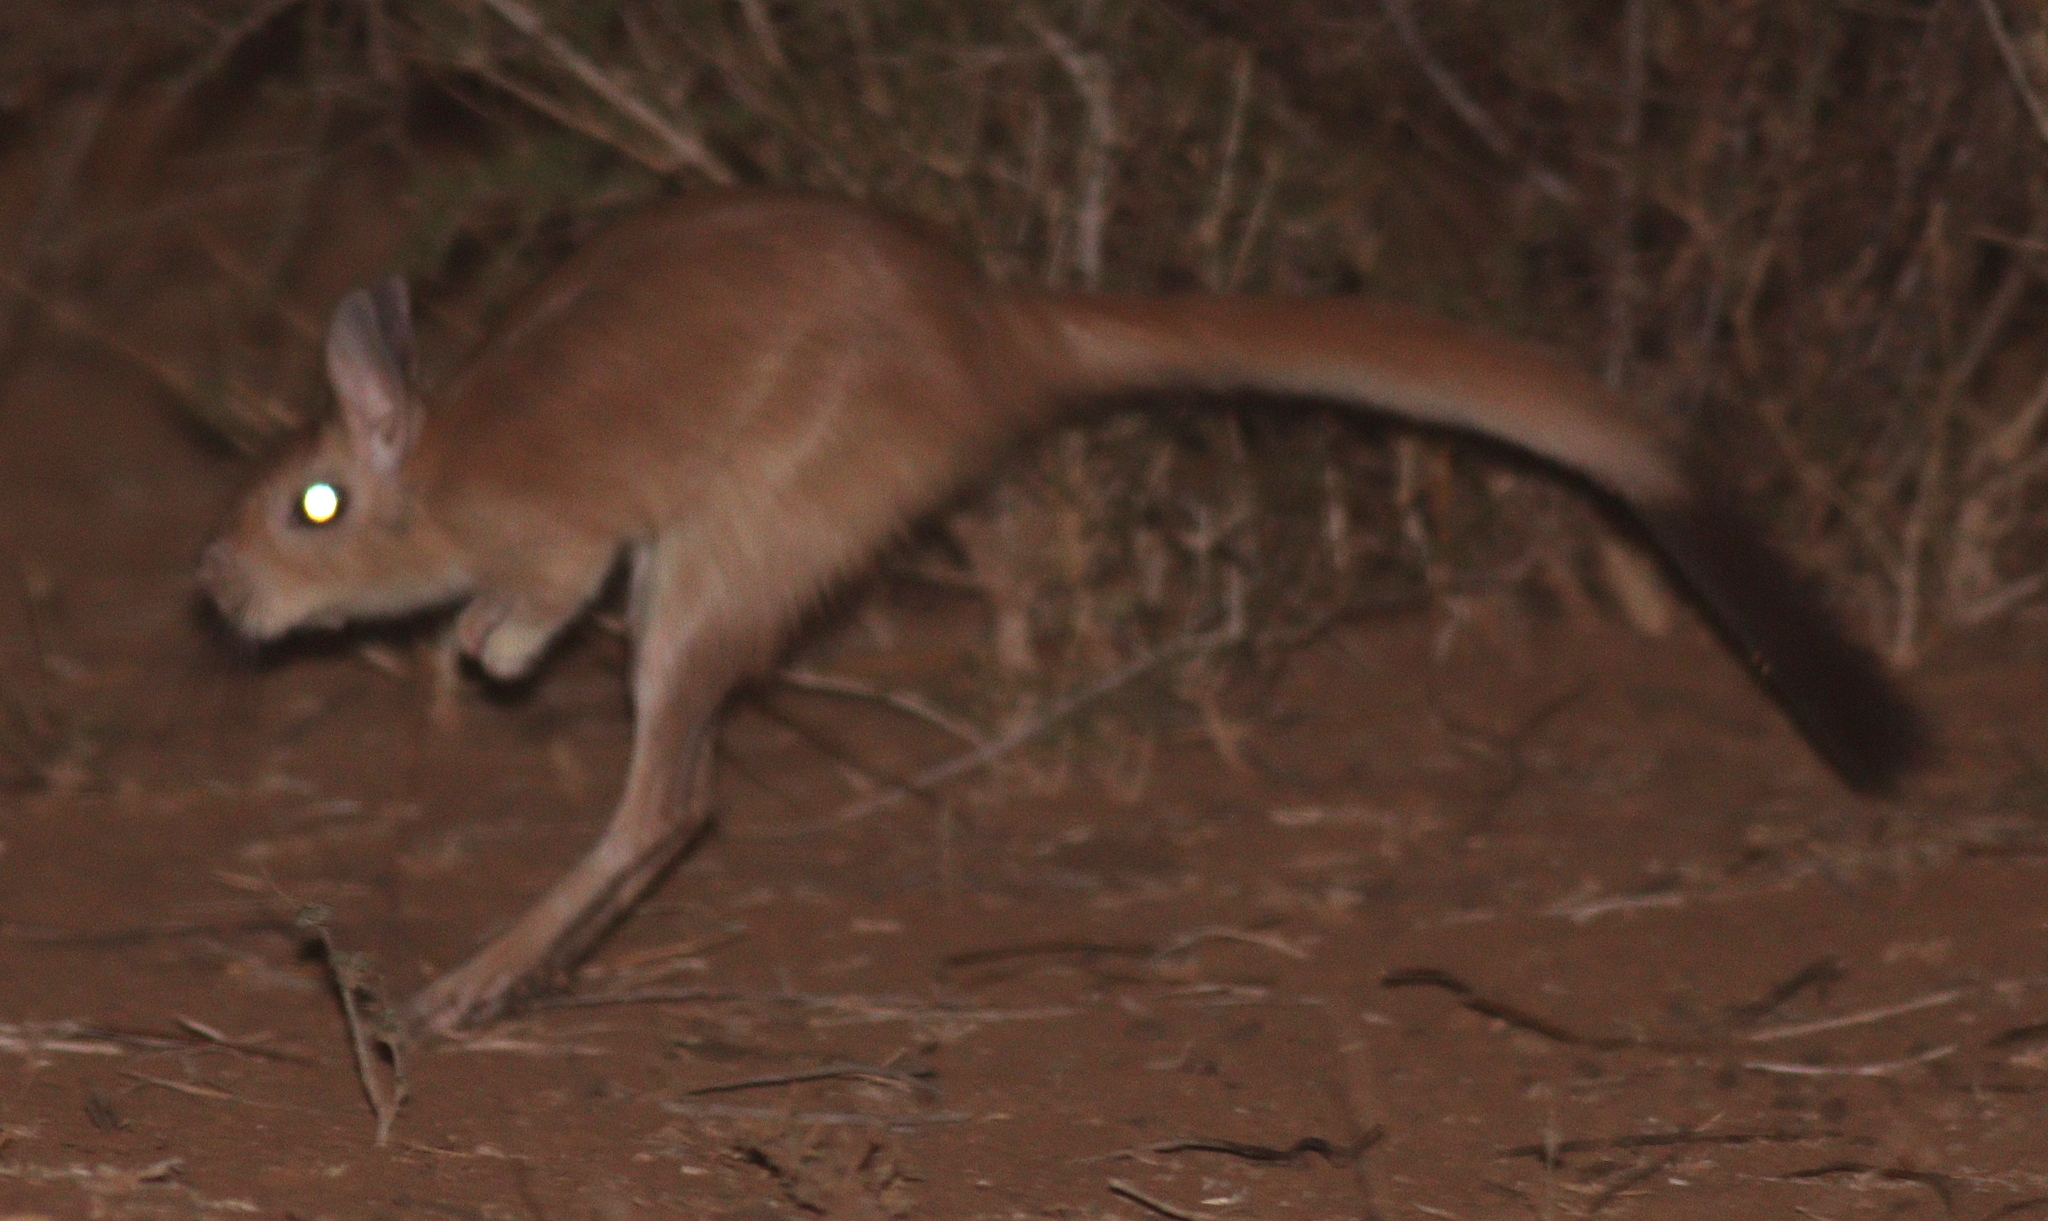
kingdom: Animalia
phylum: Chordata
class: Mammalia
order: Rodentia
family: Pedetidae
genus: Pedetes
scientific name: Pedetes capensis
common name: South african spring hare
